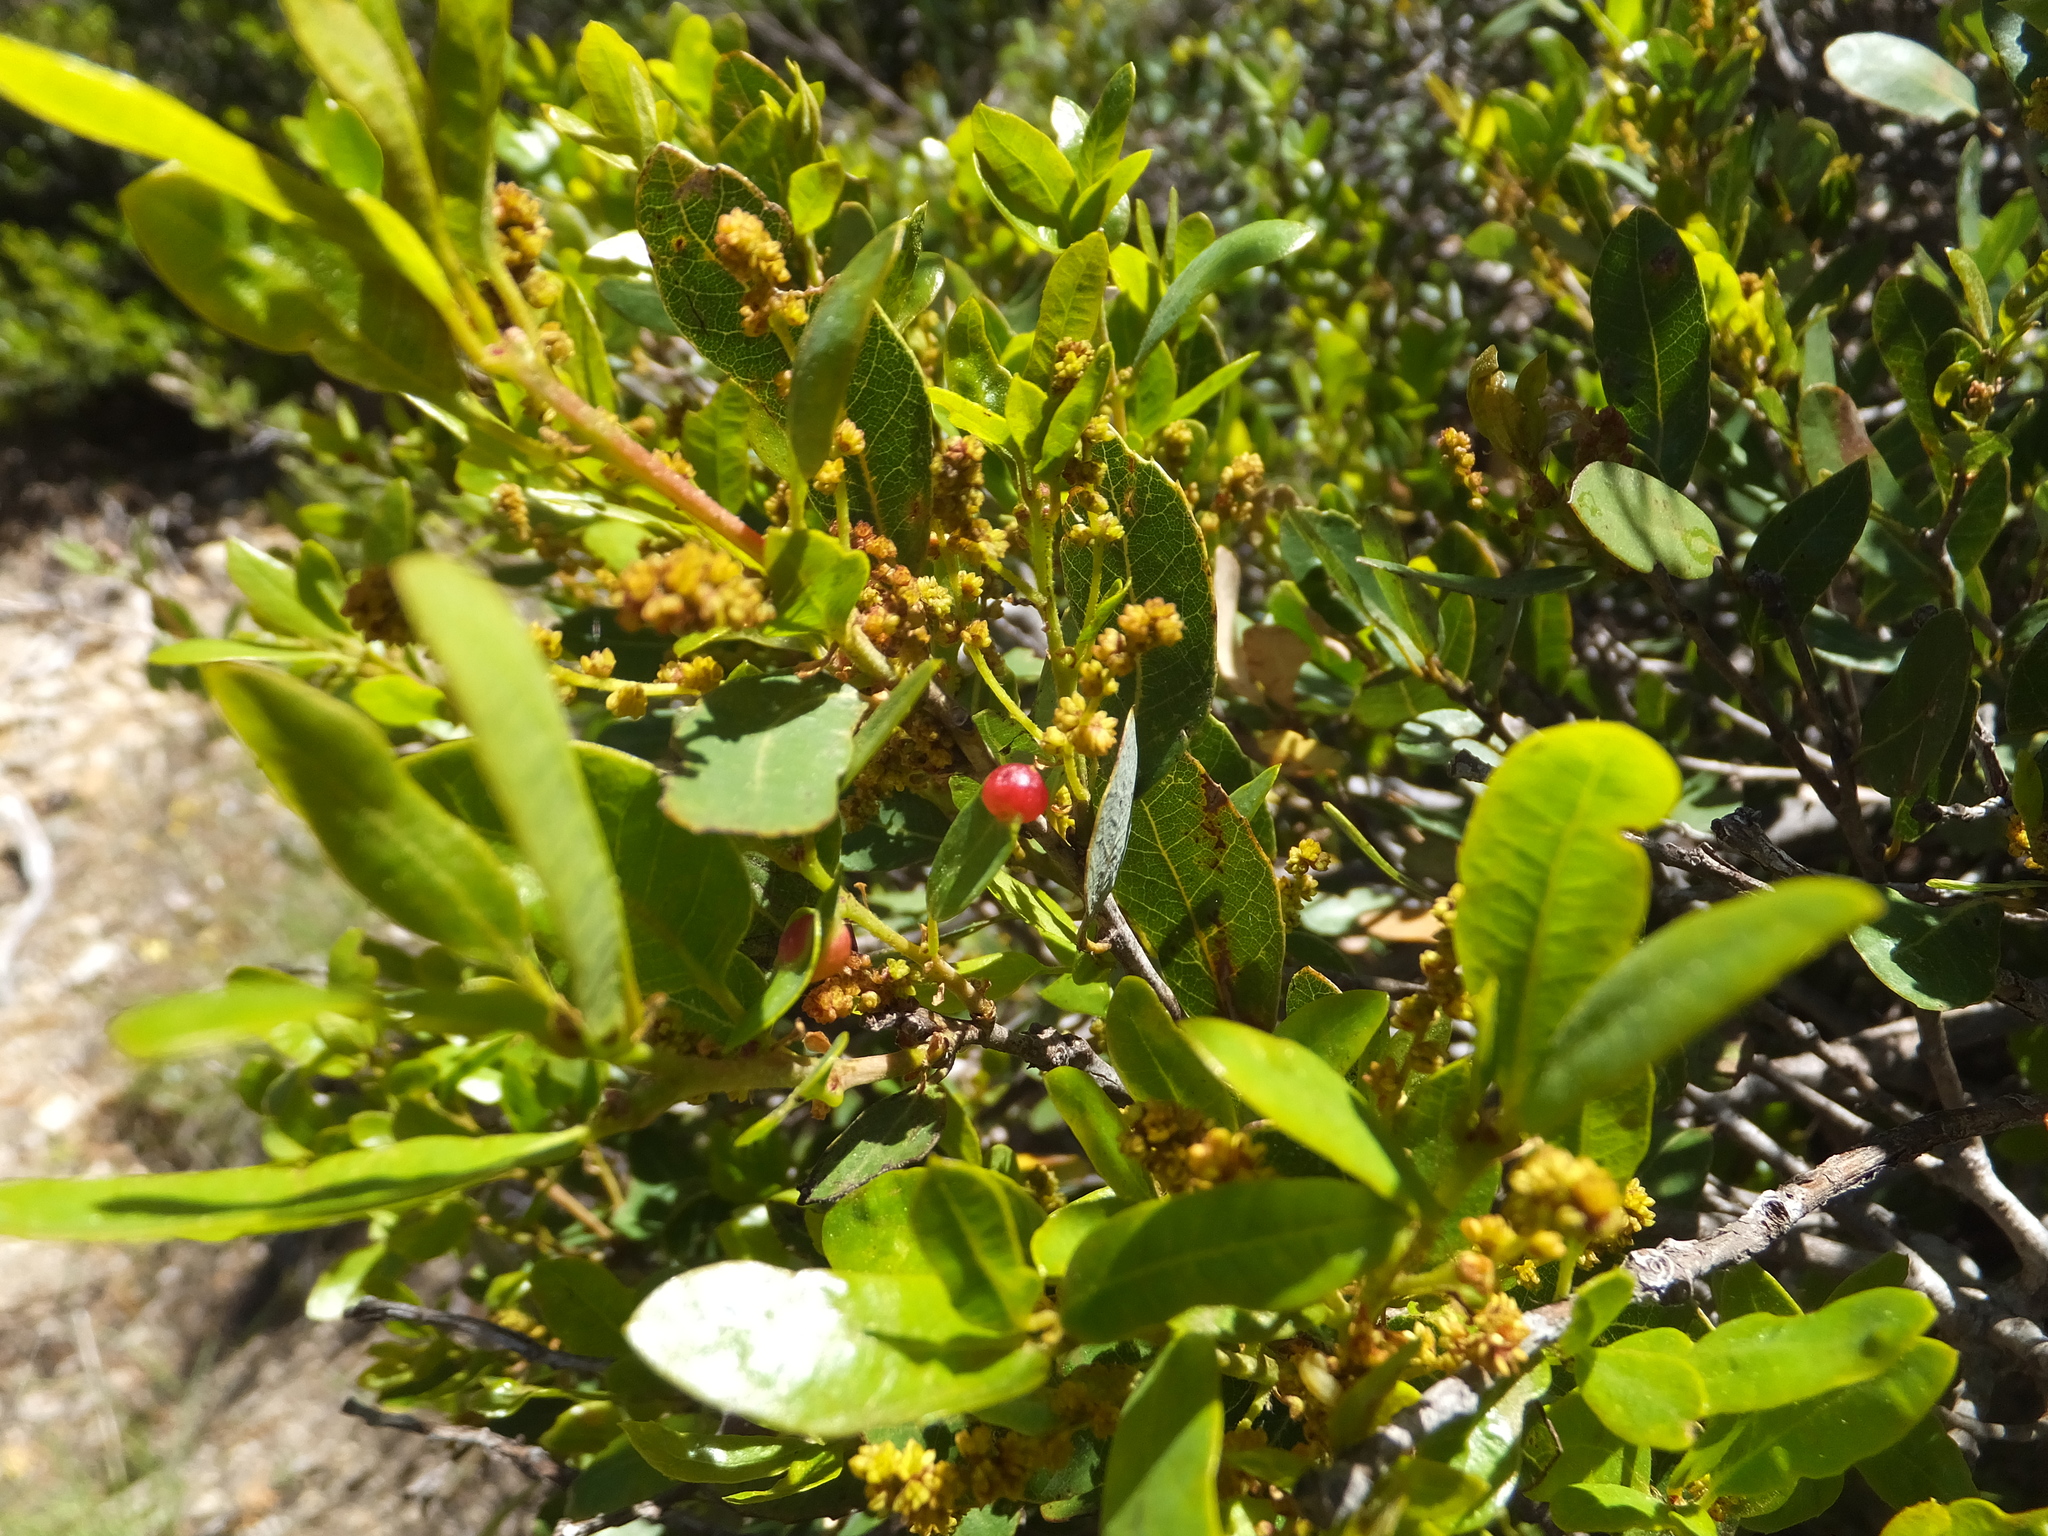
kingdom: Plantae
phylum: Tracheophyta
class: Magnoliopsida
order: Fagales
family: Fagaceae
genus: Quercus
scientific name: Quercus vacciniifolia
